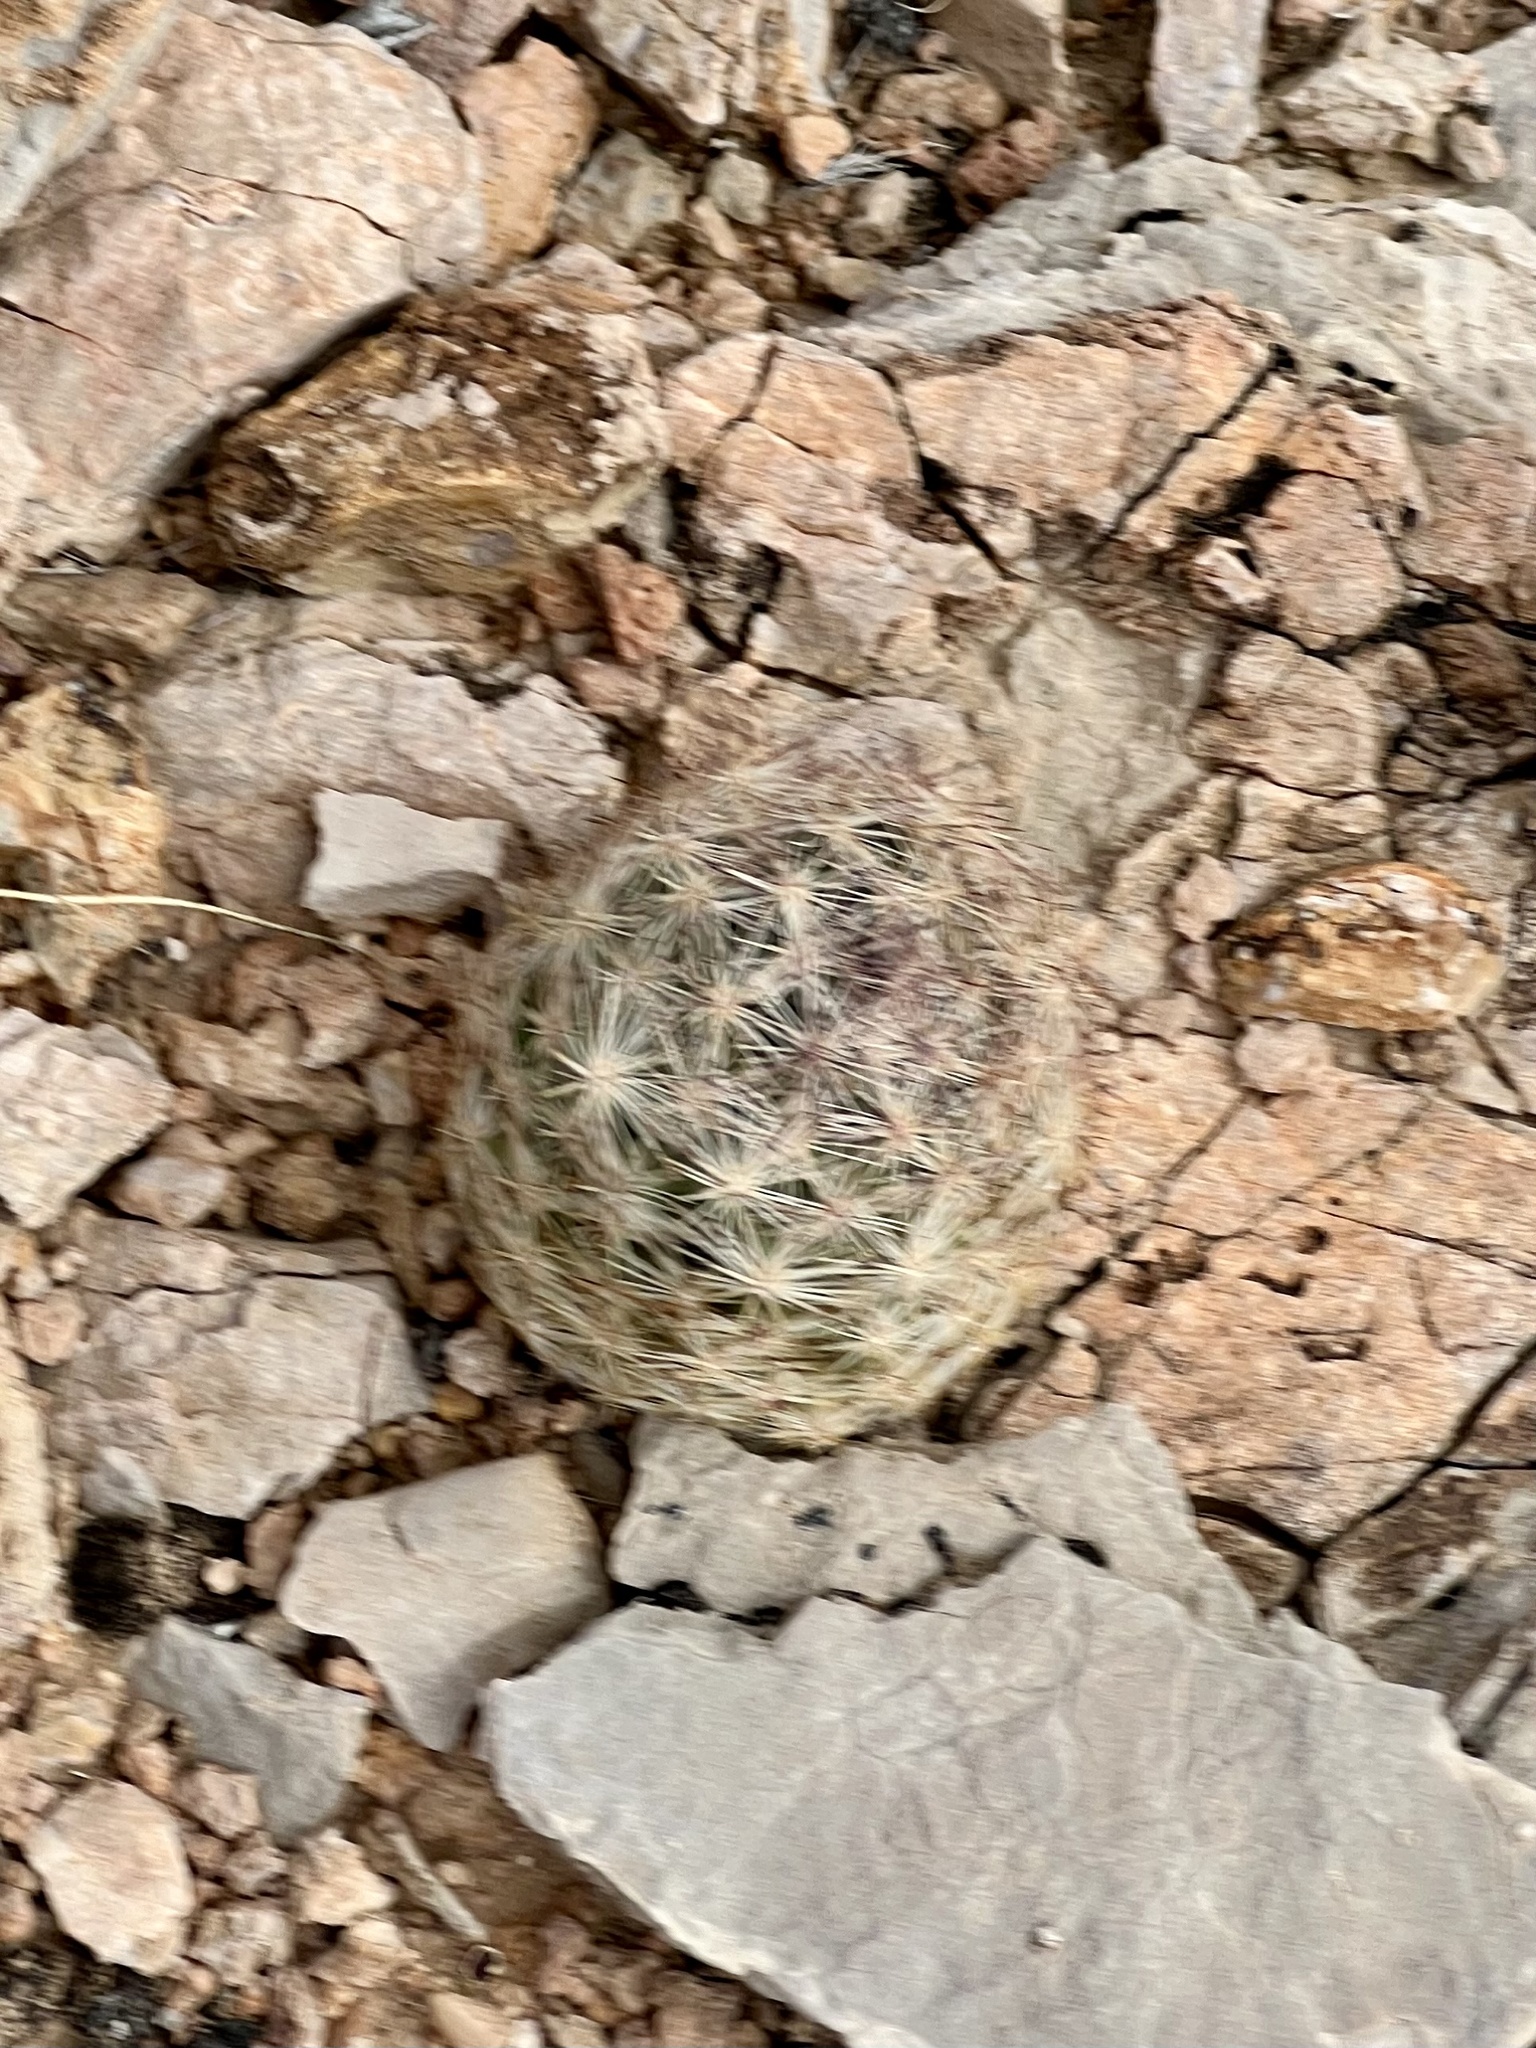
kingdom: Plantae
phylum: Tracheophyta
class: Magnoliopsida
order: Caryophyllales
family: Cactaceae
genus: Pelecyphora
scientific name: Pelecyphora dasyacantha
